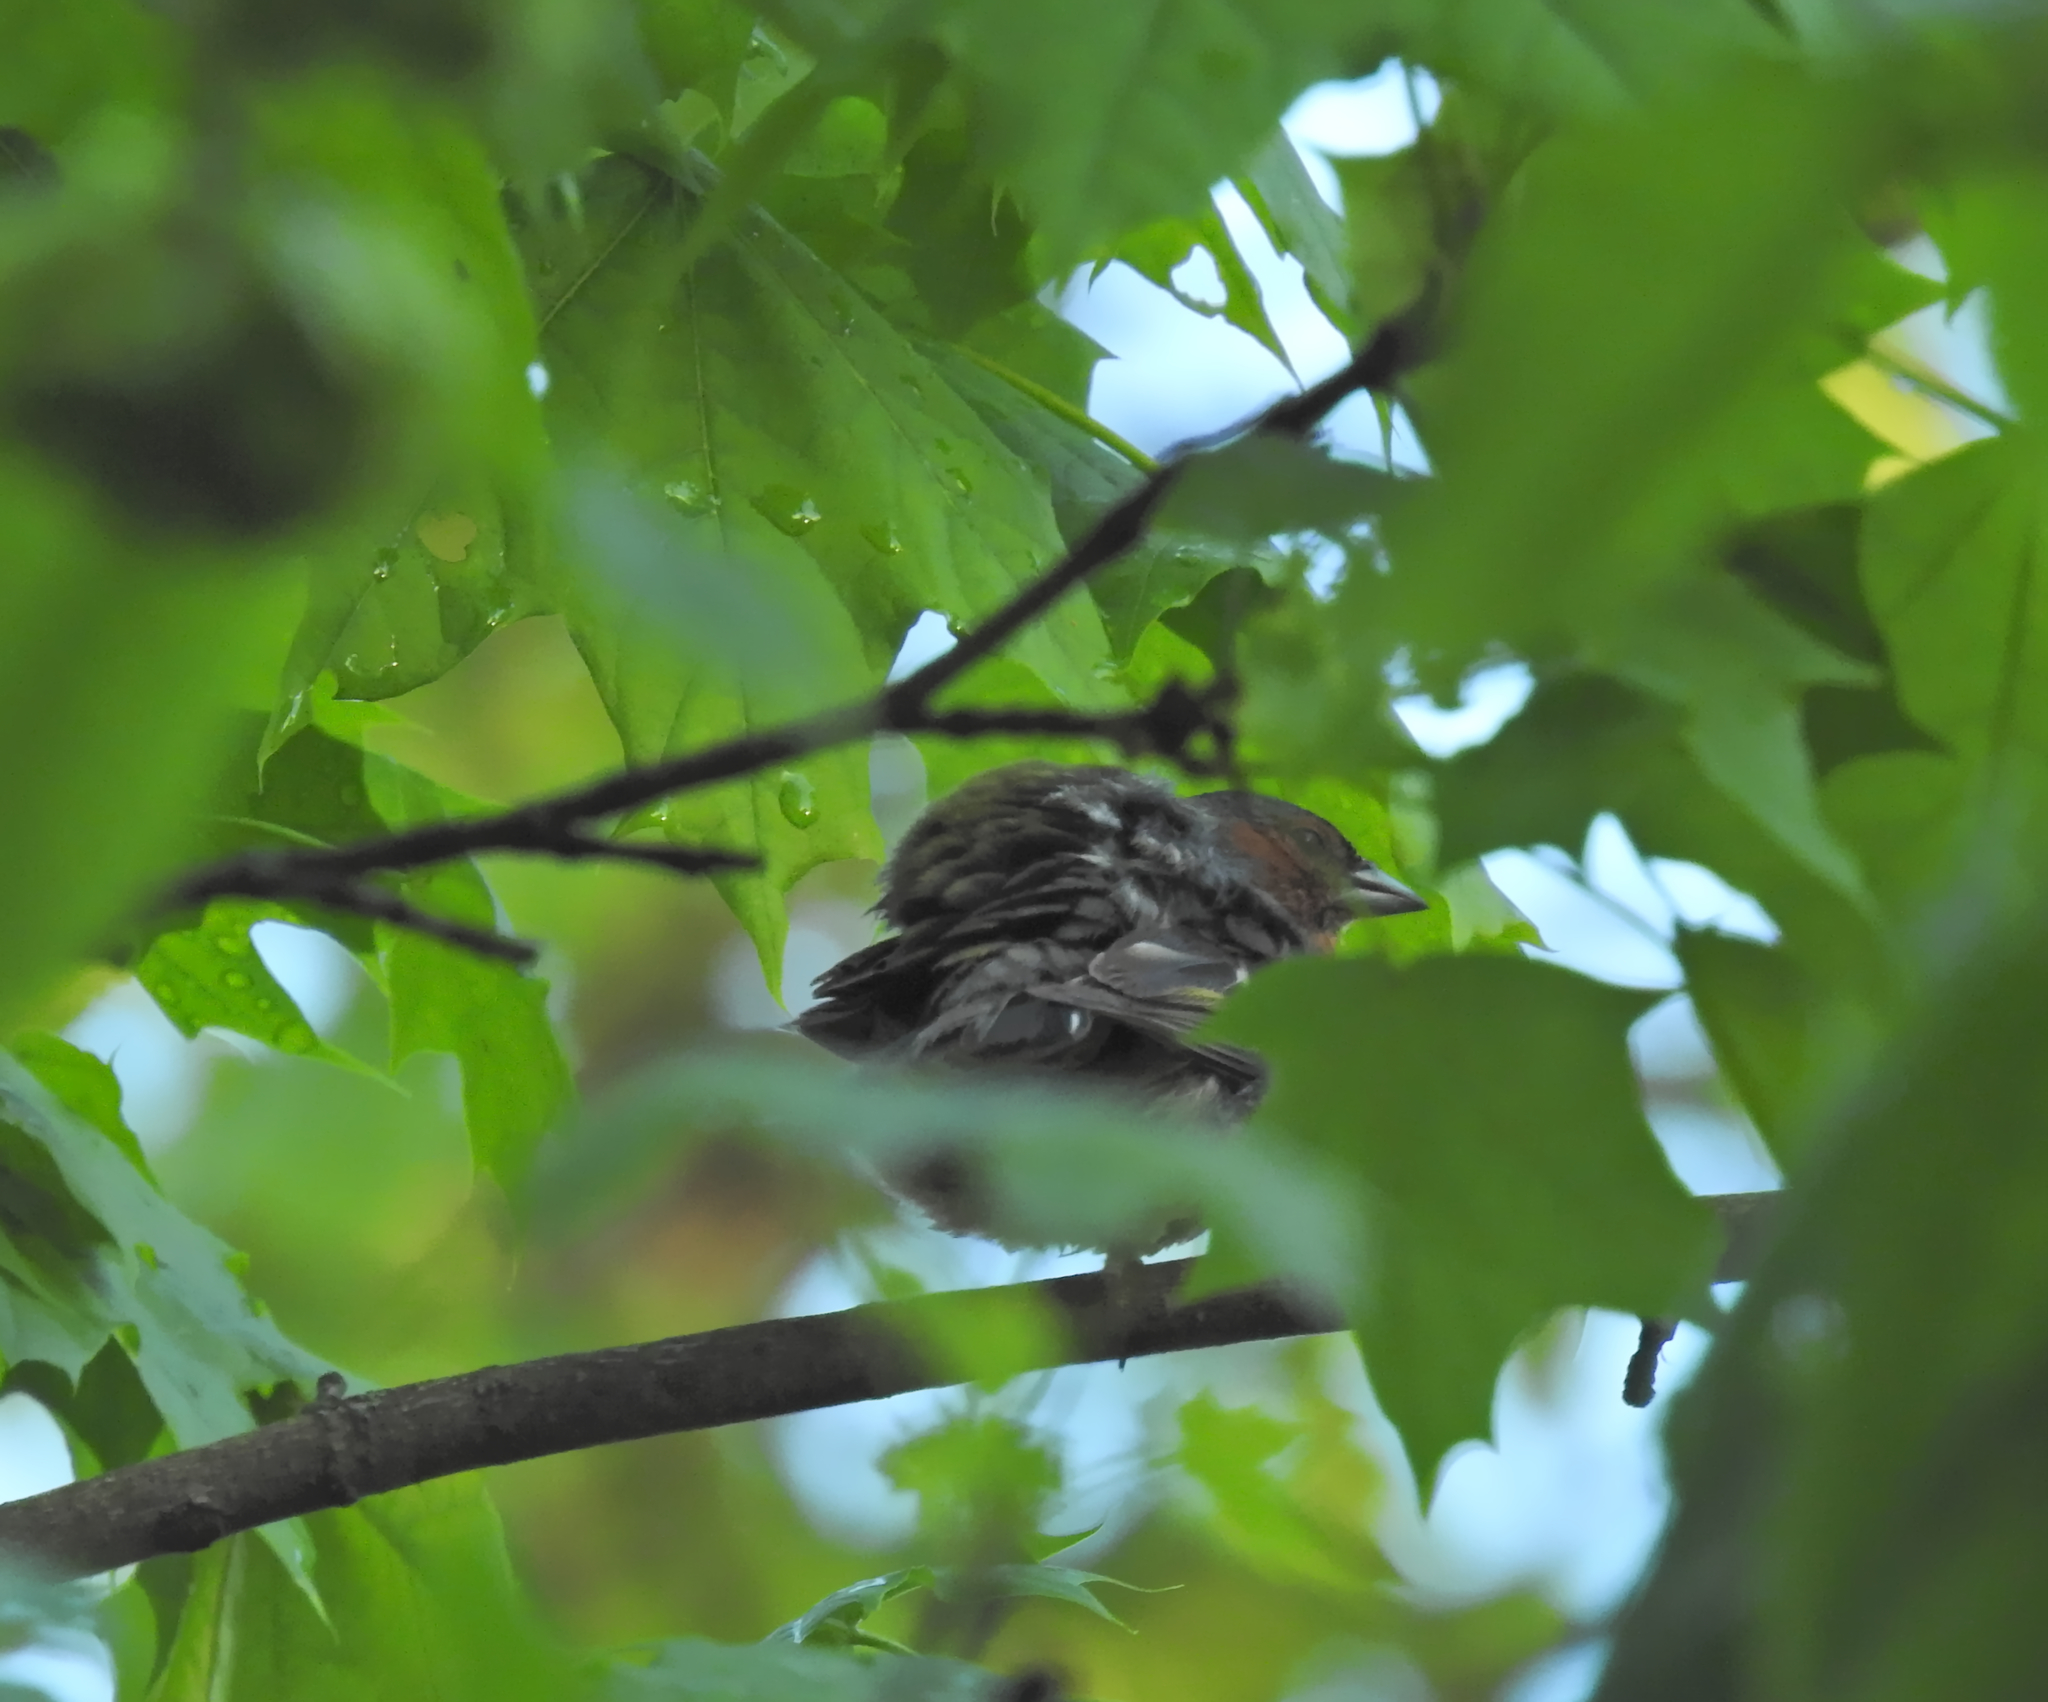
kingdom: Animalia
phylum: Chordata
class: Aves
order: Passeriformes
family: Fringillidae
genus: Fringilla
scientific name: Fringilla coelebs
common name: Common chaffinch
